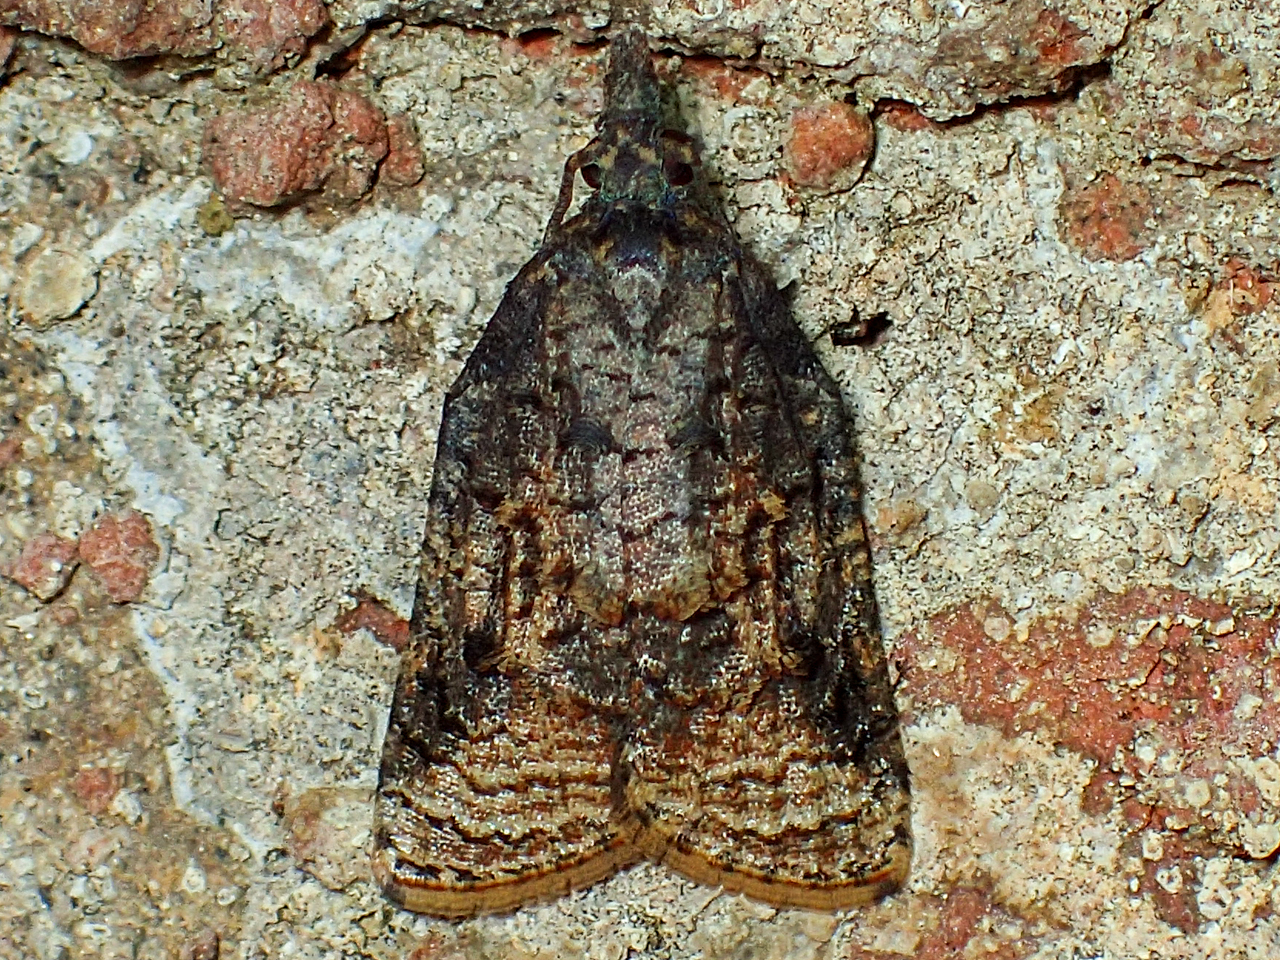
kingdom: Animalia
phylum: Arthropoda
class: Insecta
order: Lepidoptera
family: Tortricidae
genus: Platynota
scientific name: Platynota idaeusalis
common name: Tufted apple bud moth
